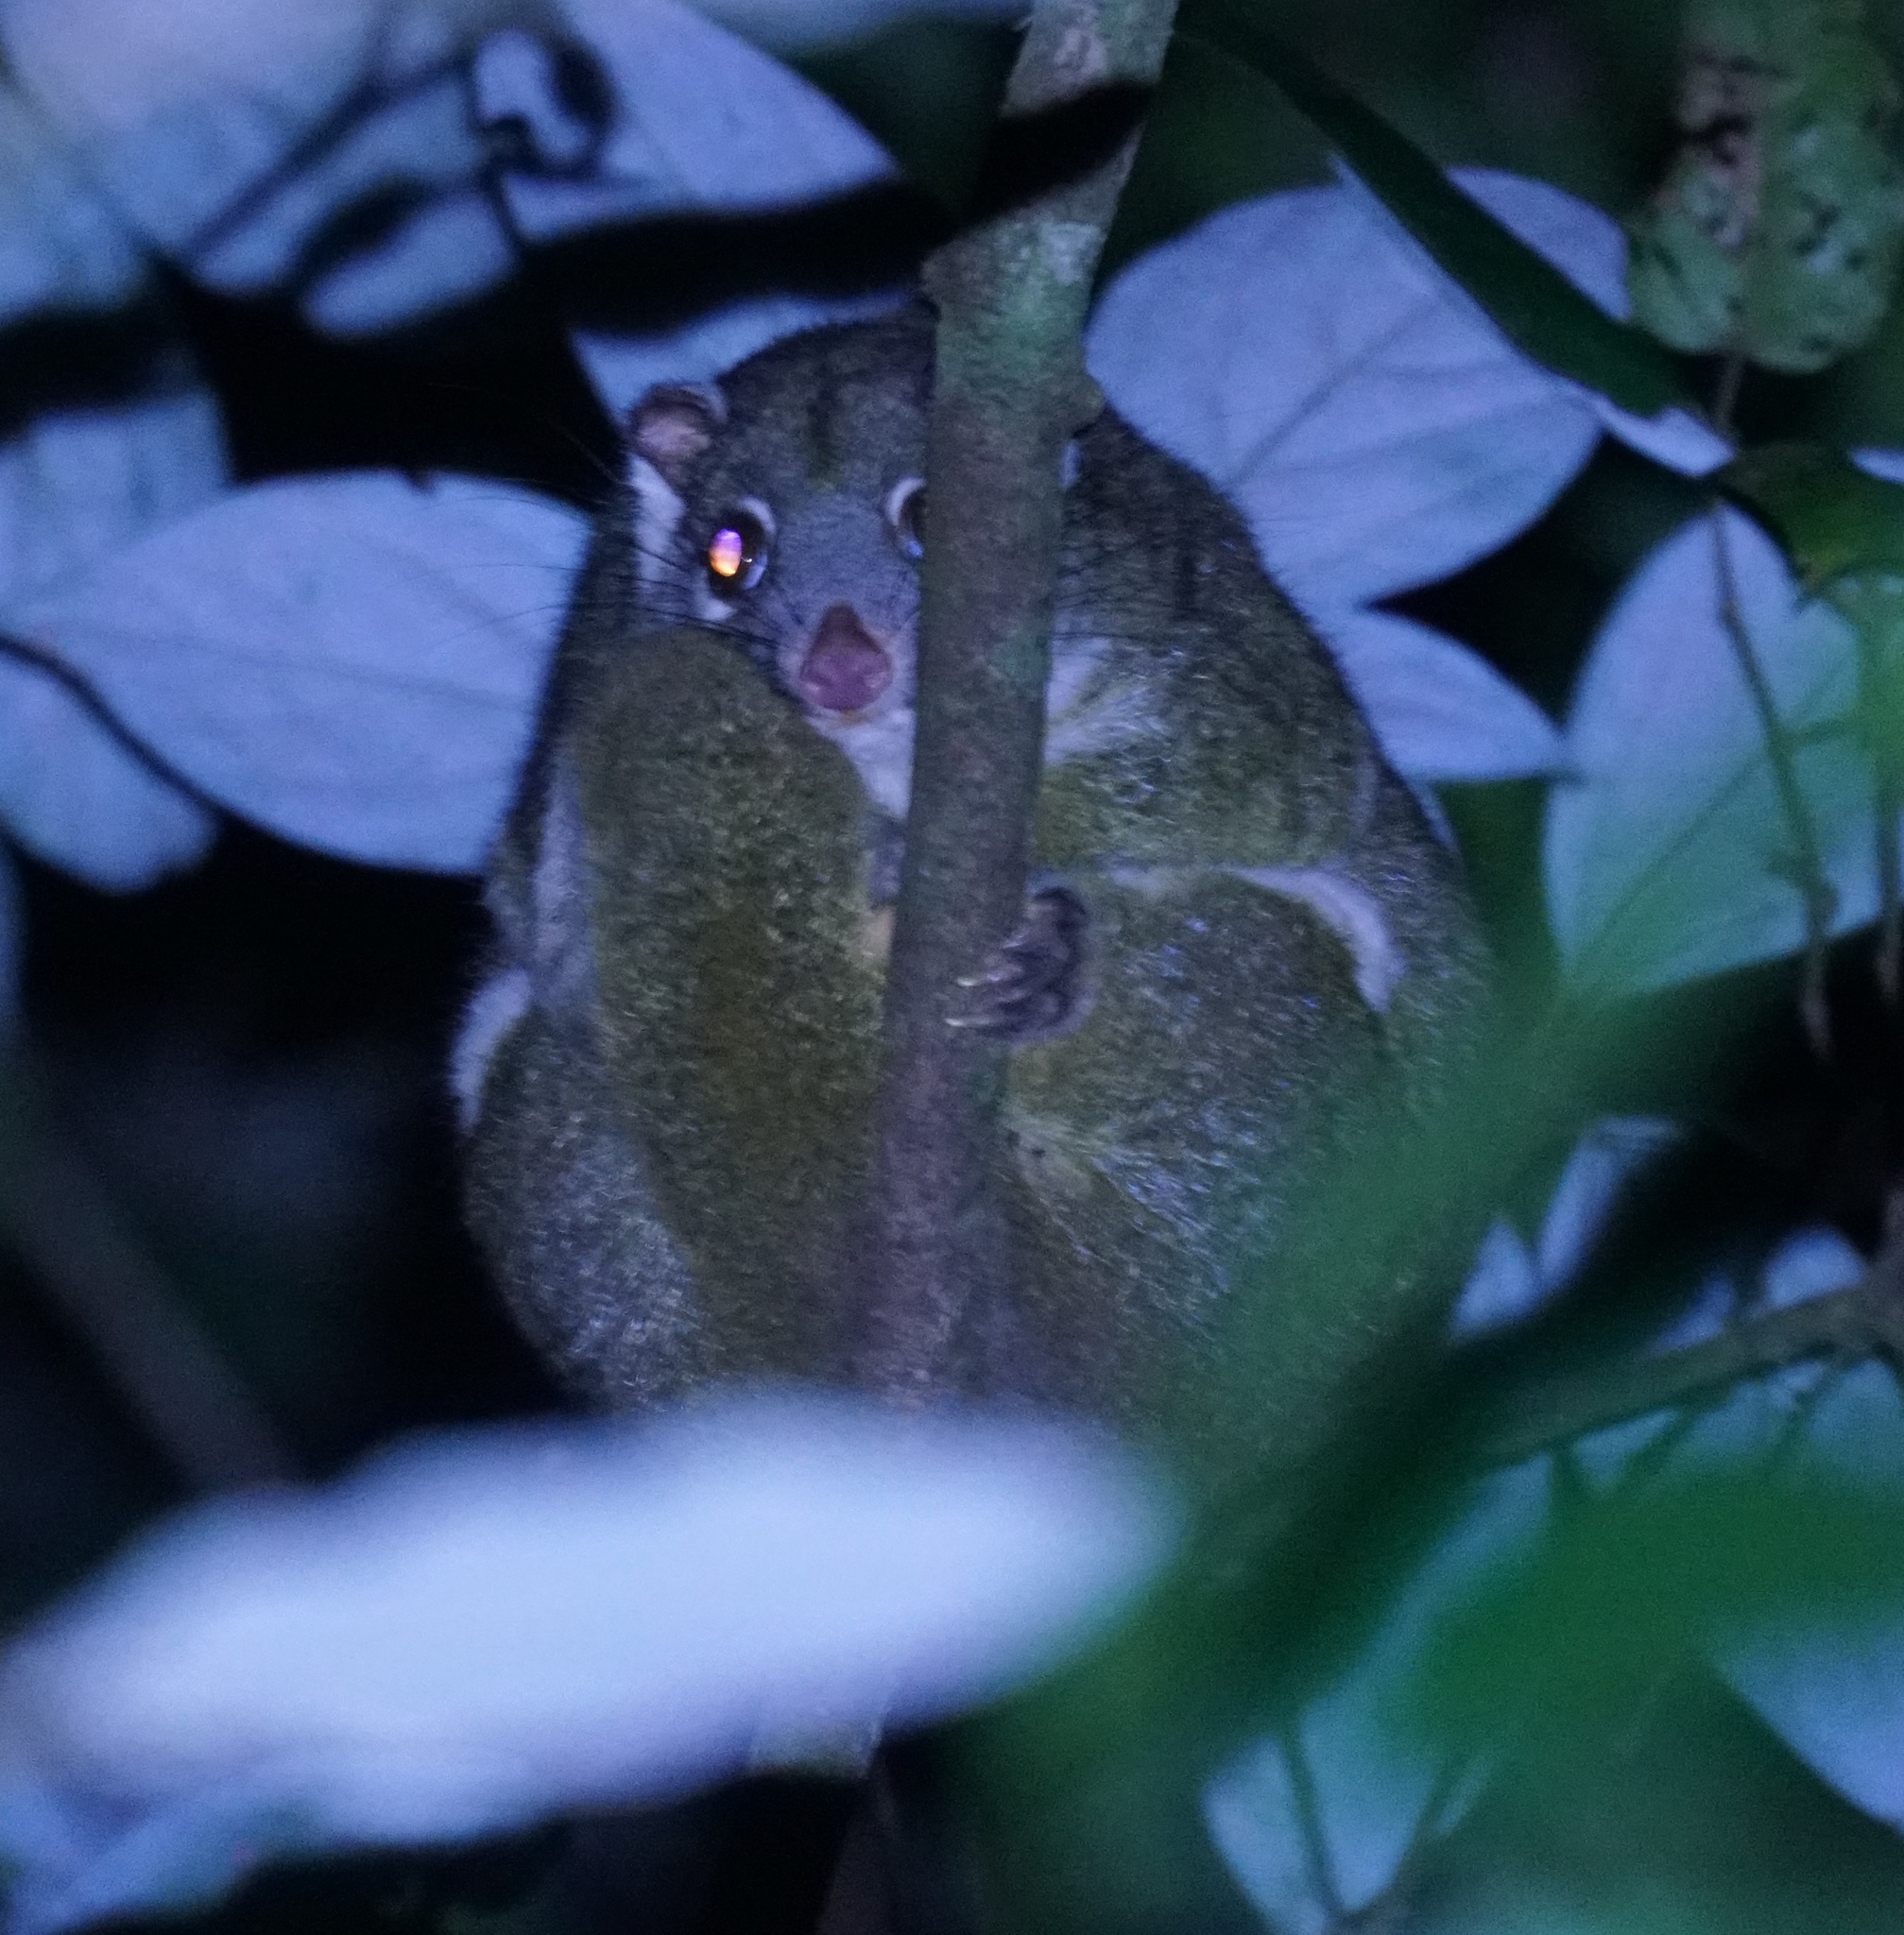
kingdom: Animalia
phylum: Chordata
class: Mammalia
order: Diprotodontia
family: Pseudocheiridae
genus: Pseudochirops
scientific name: Pseudochirops archeri
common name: Green ringtail
